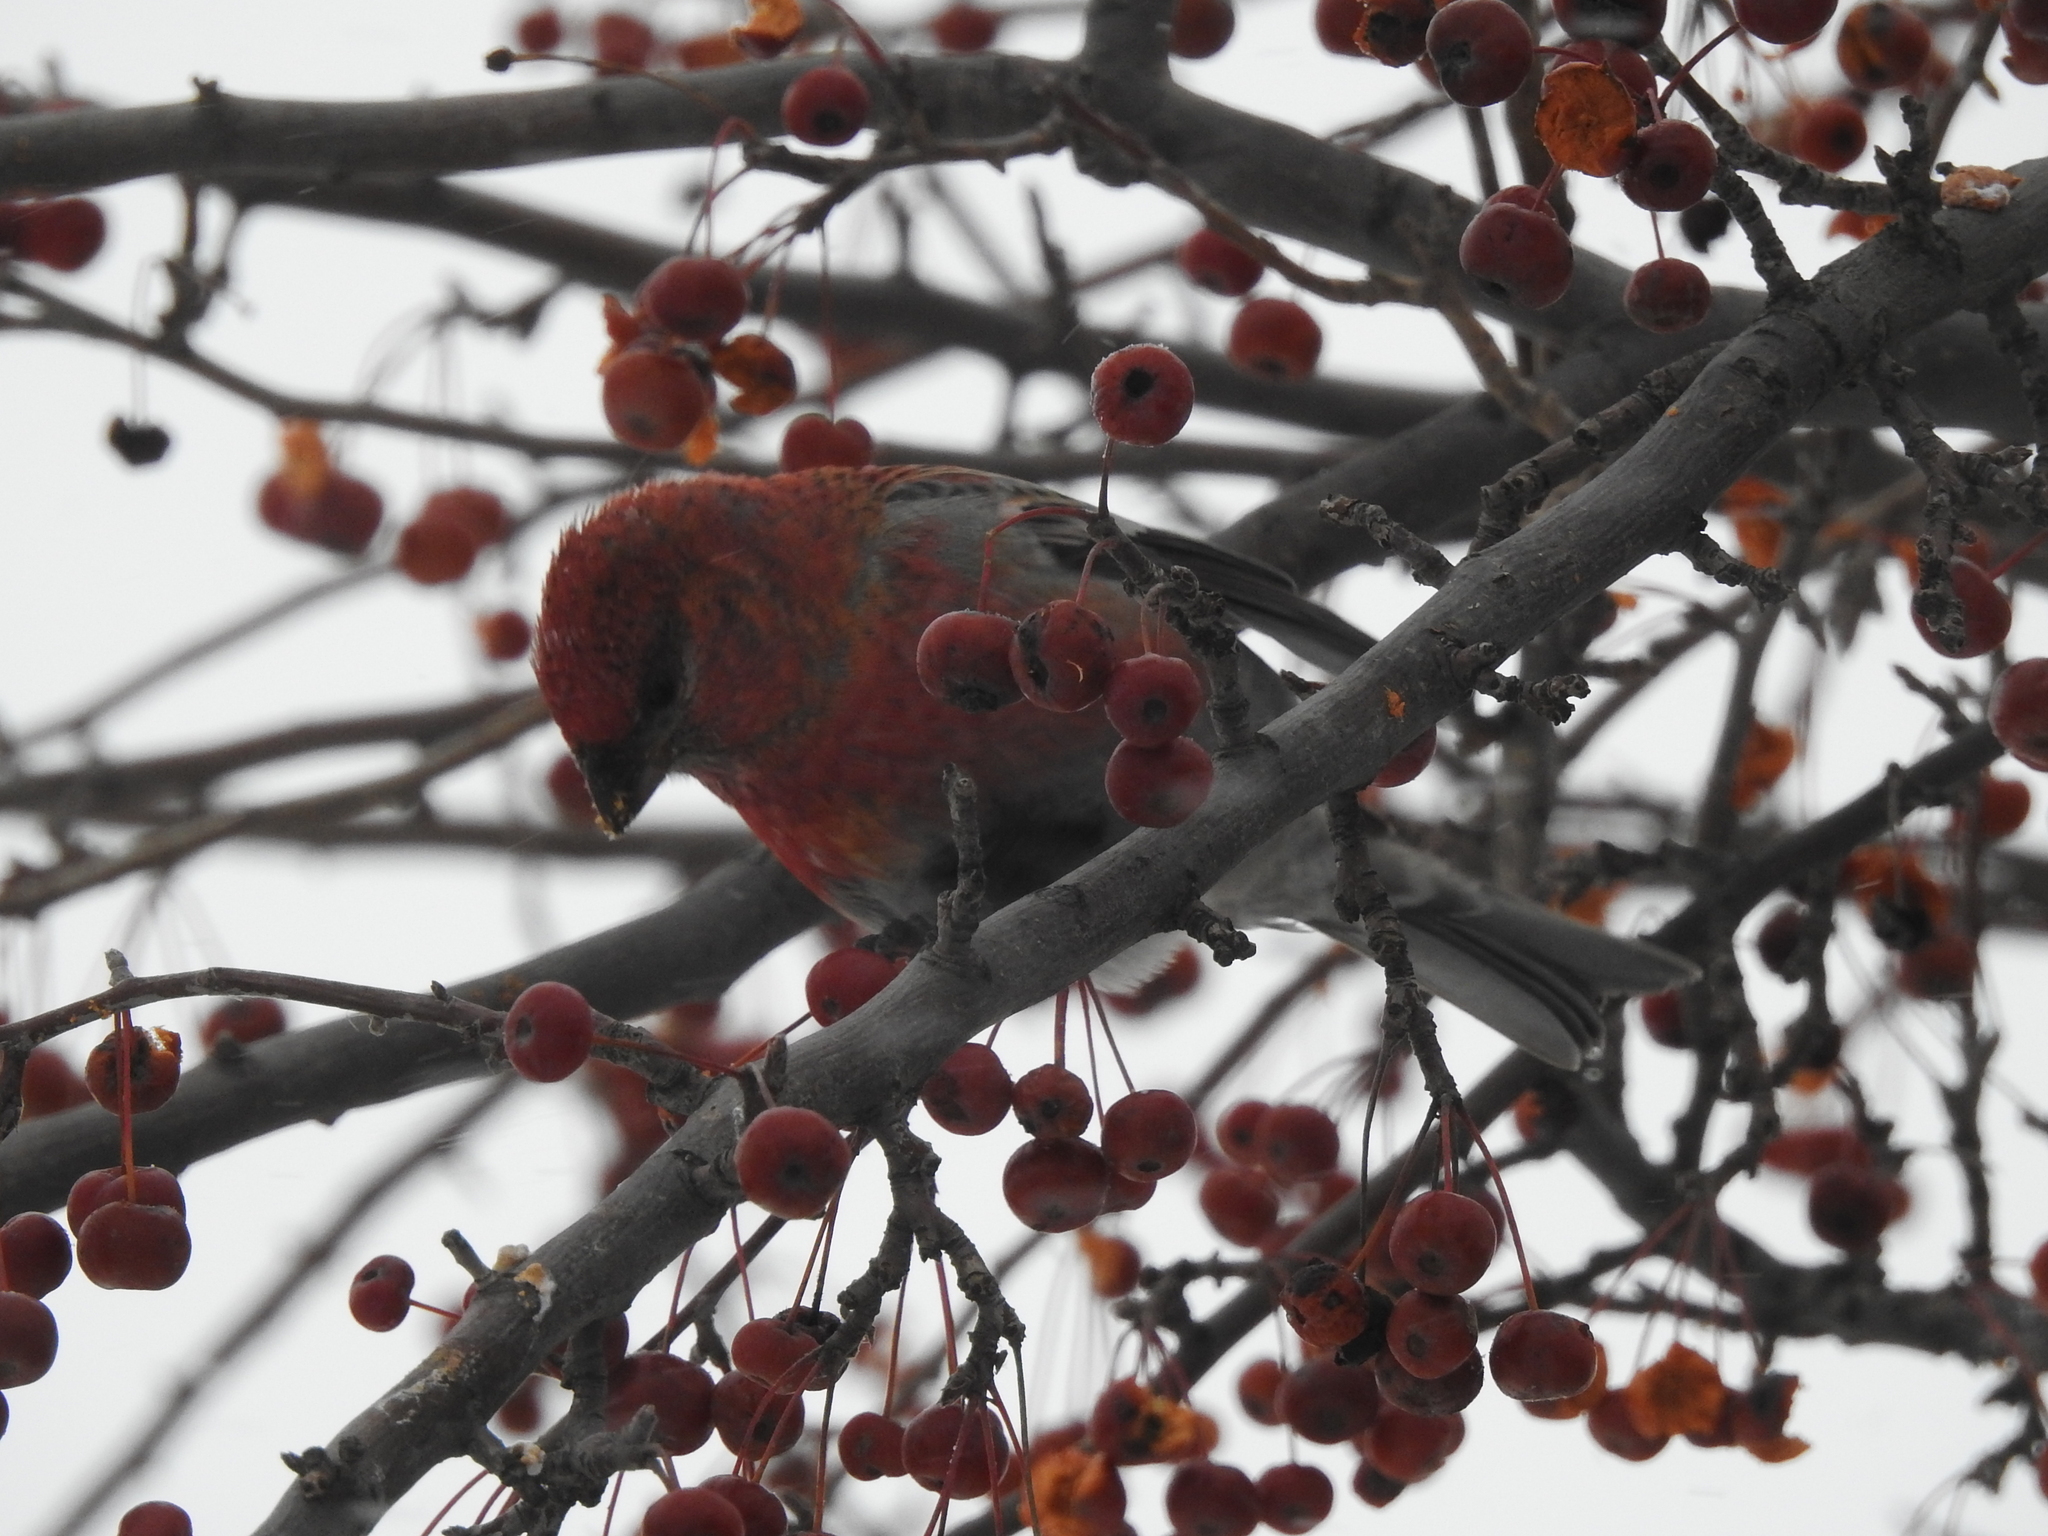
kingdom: Animalia
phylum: Chordata
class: Aves
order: Passeriformes
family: Fringillidae
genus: Pinicola
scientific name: Pinicola enucleator
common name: Pine grosbeak
